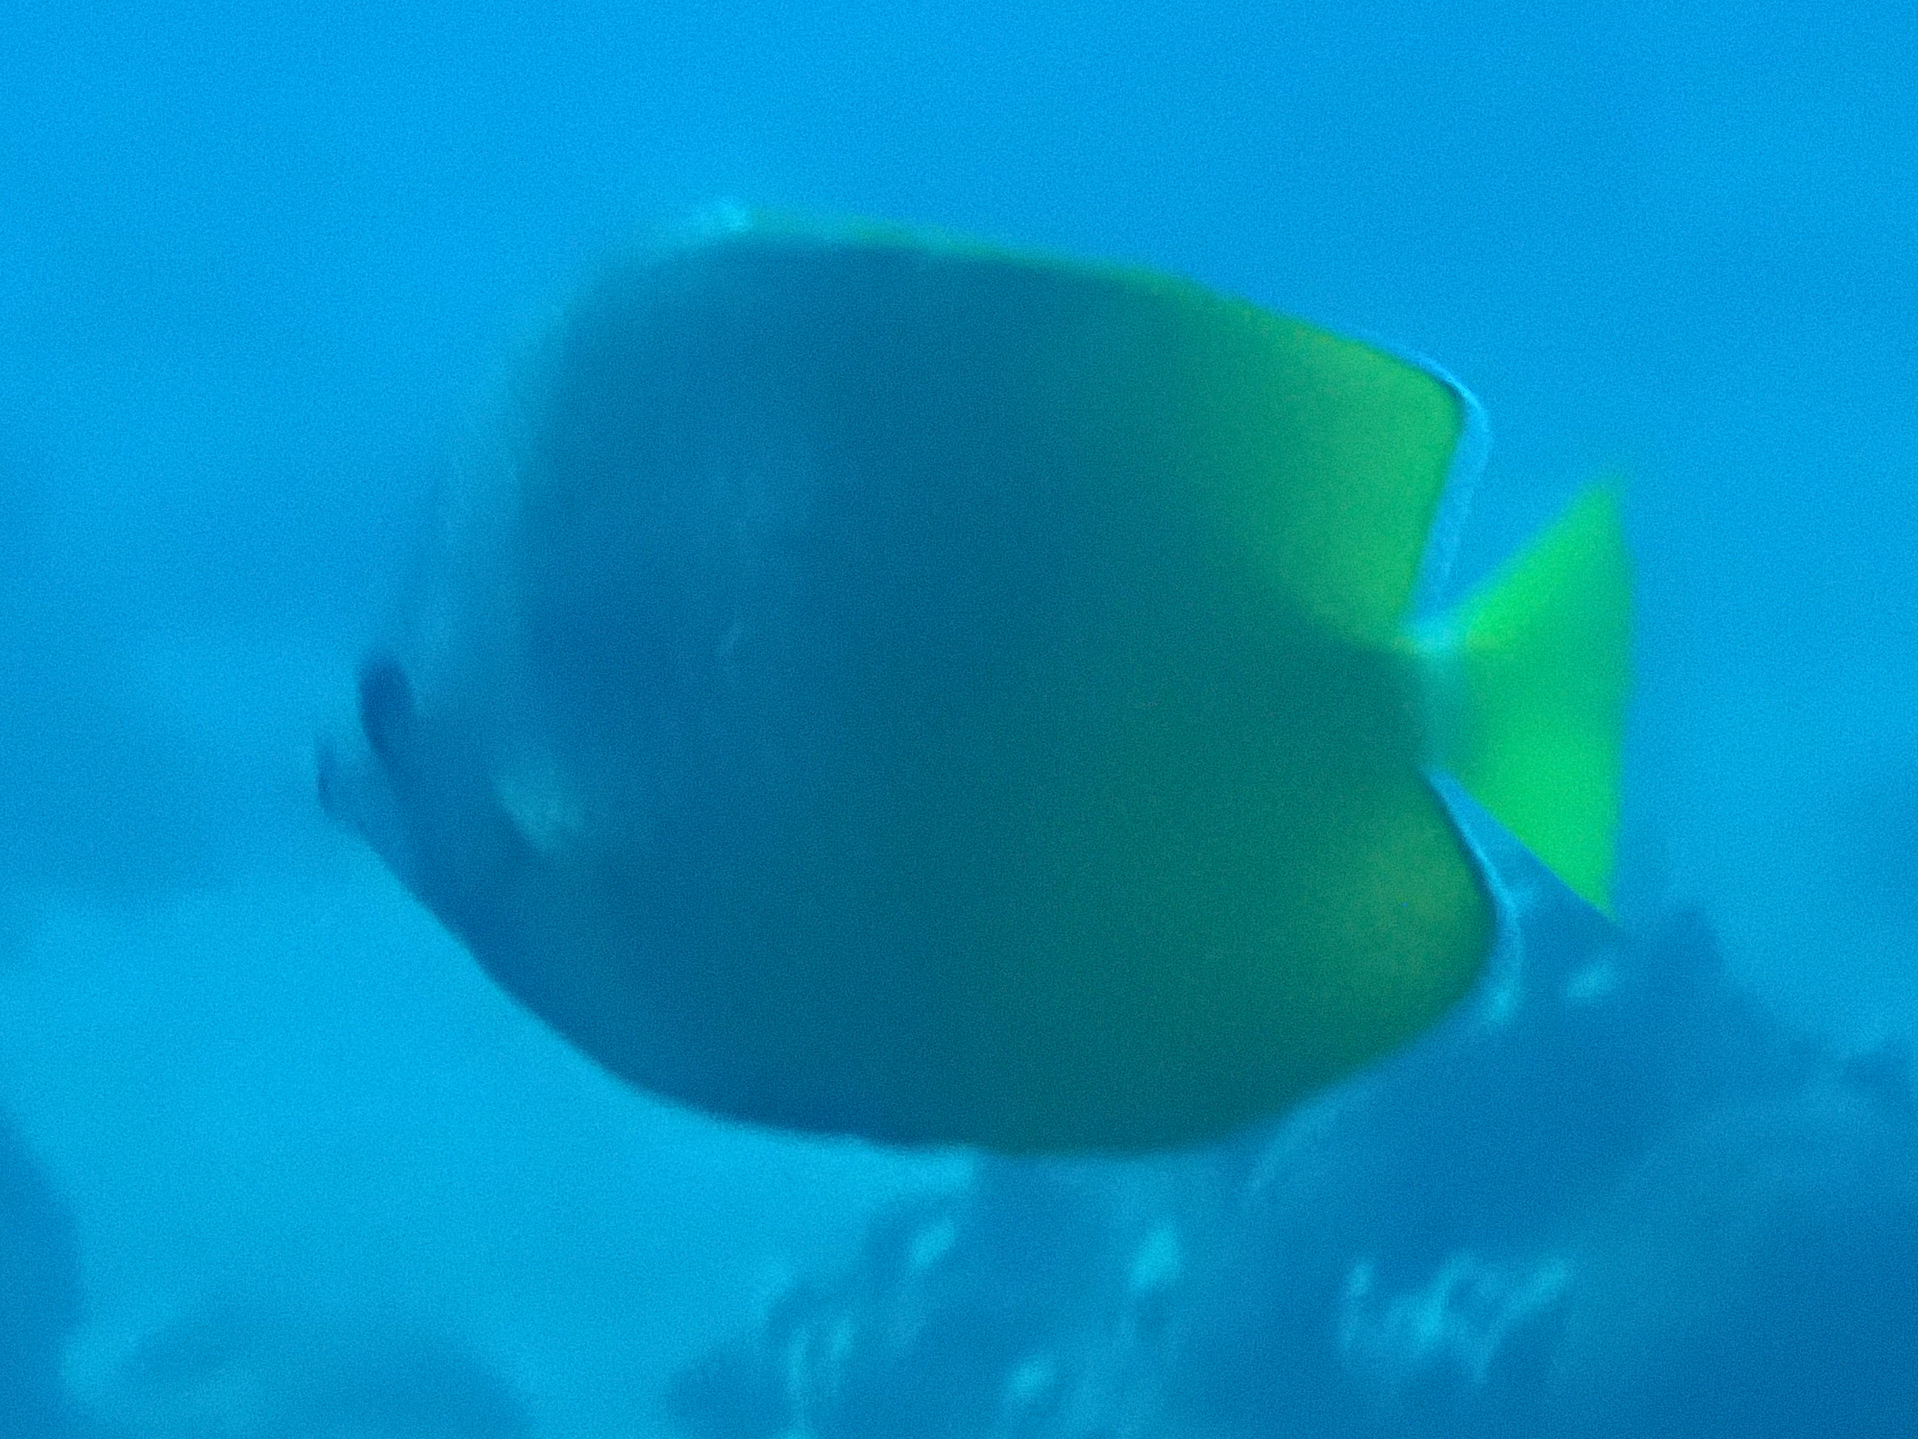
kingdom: Animalia
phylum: Chordata
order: Perciformes
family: Chaetodontidae
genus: Chaetodon
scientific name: Chaetodon kleinii
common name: Klein's butterflyfish
